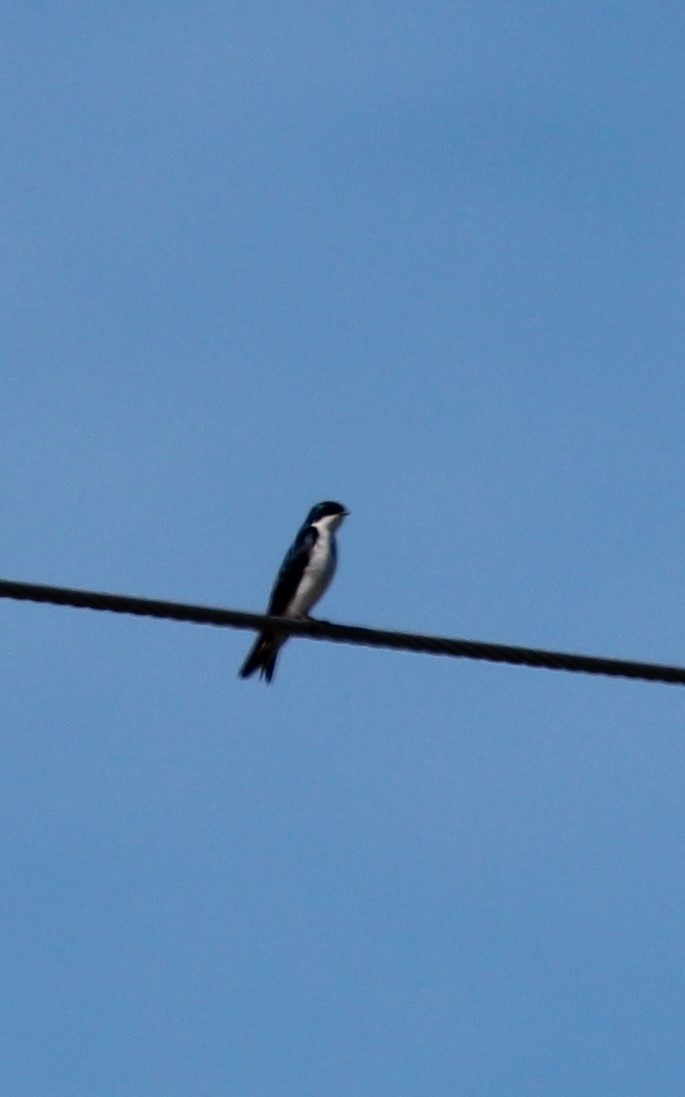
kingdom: Animalia
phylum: Chordata
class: Aves
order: Passeriformes
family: Hirundinidae
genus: Tachycineta
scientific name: Tachycineta bicolor
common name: Tree swallow
